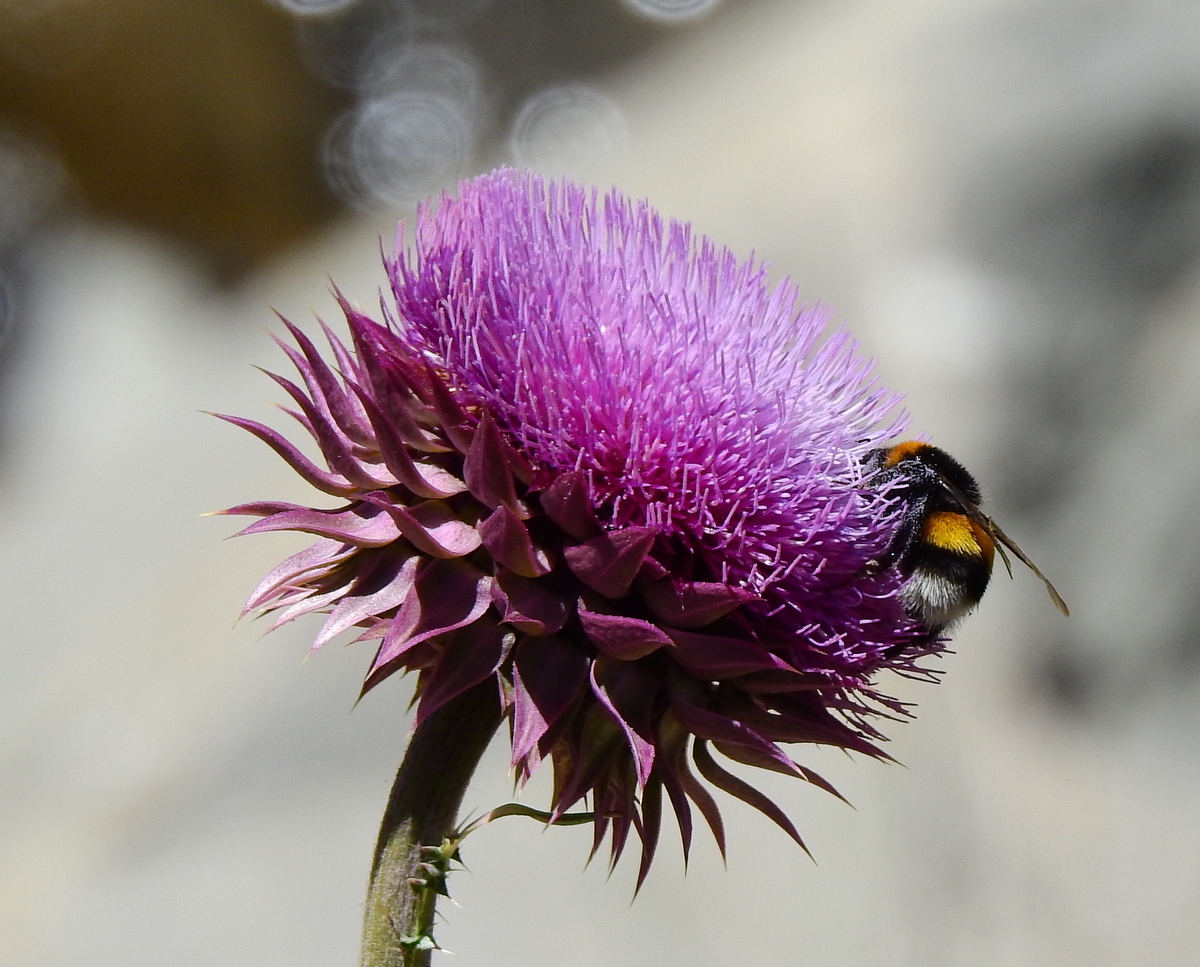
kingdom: Animalia
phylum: Arthropoda
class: Insecta
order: Hymenoptera
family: Apidae
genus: Bombus
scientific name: Bombus terrestris
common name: Buff-tailed bumblebee
